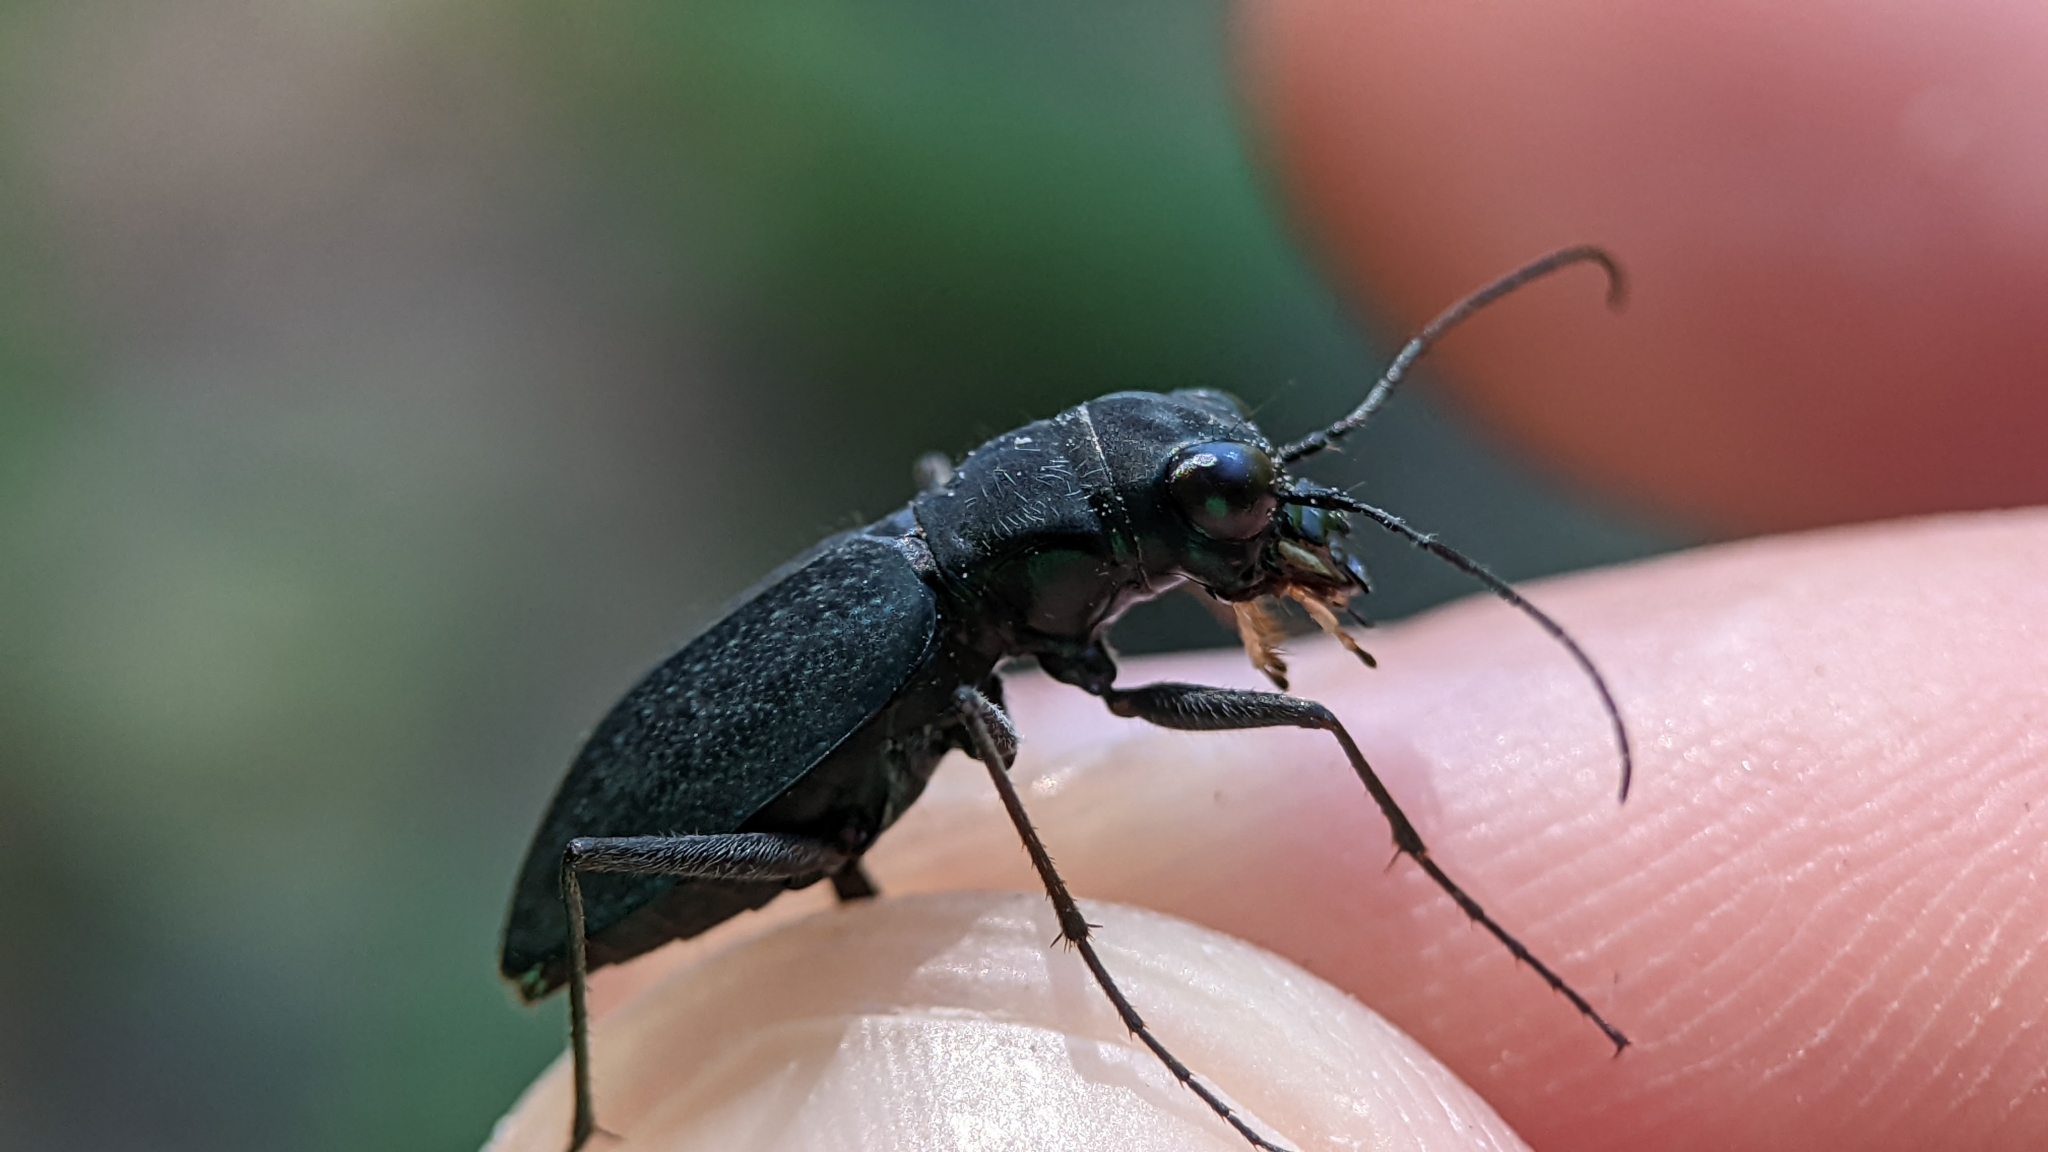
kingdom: Animalia
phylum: Arthropoda
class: Insecta
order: Coleoptera
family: Carabidae
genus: Dromochorus
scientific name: Dromochorus pilatei
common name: Cajun dromo tiger beetle
